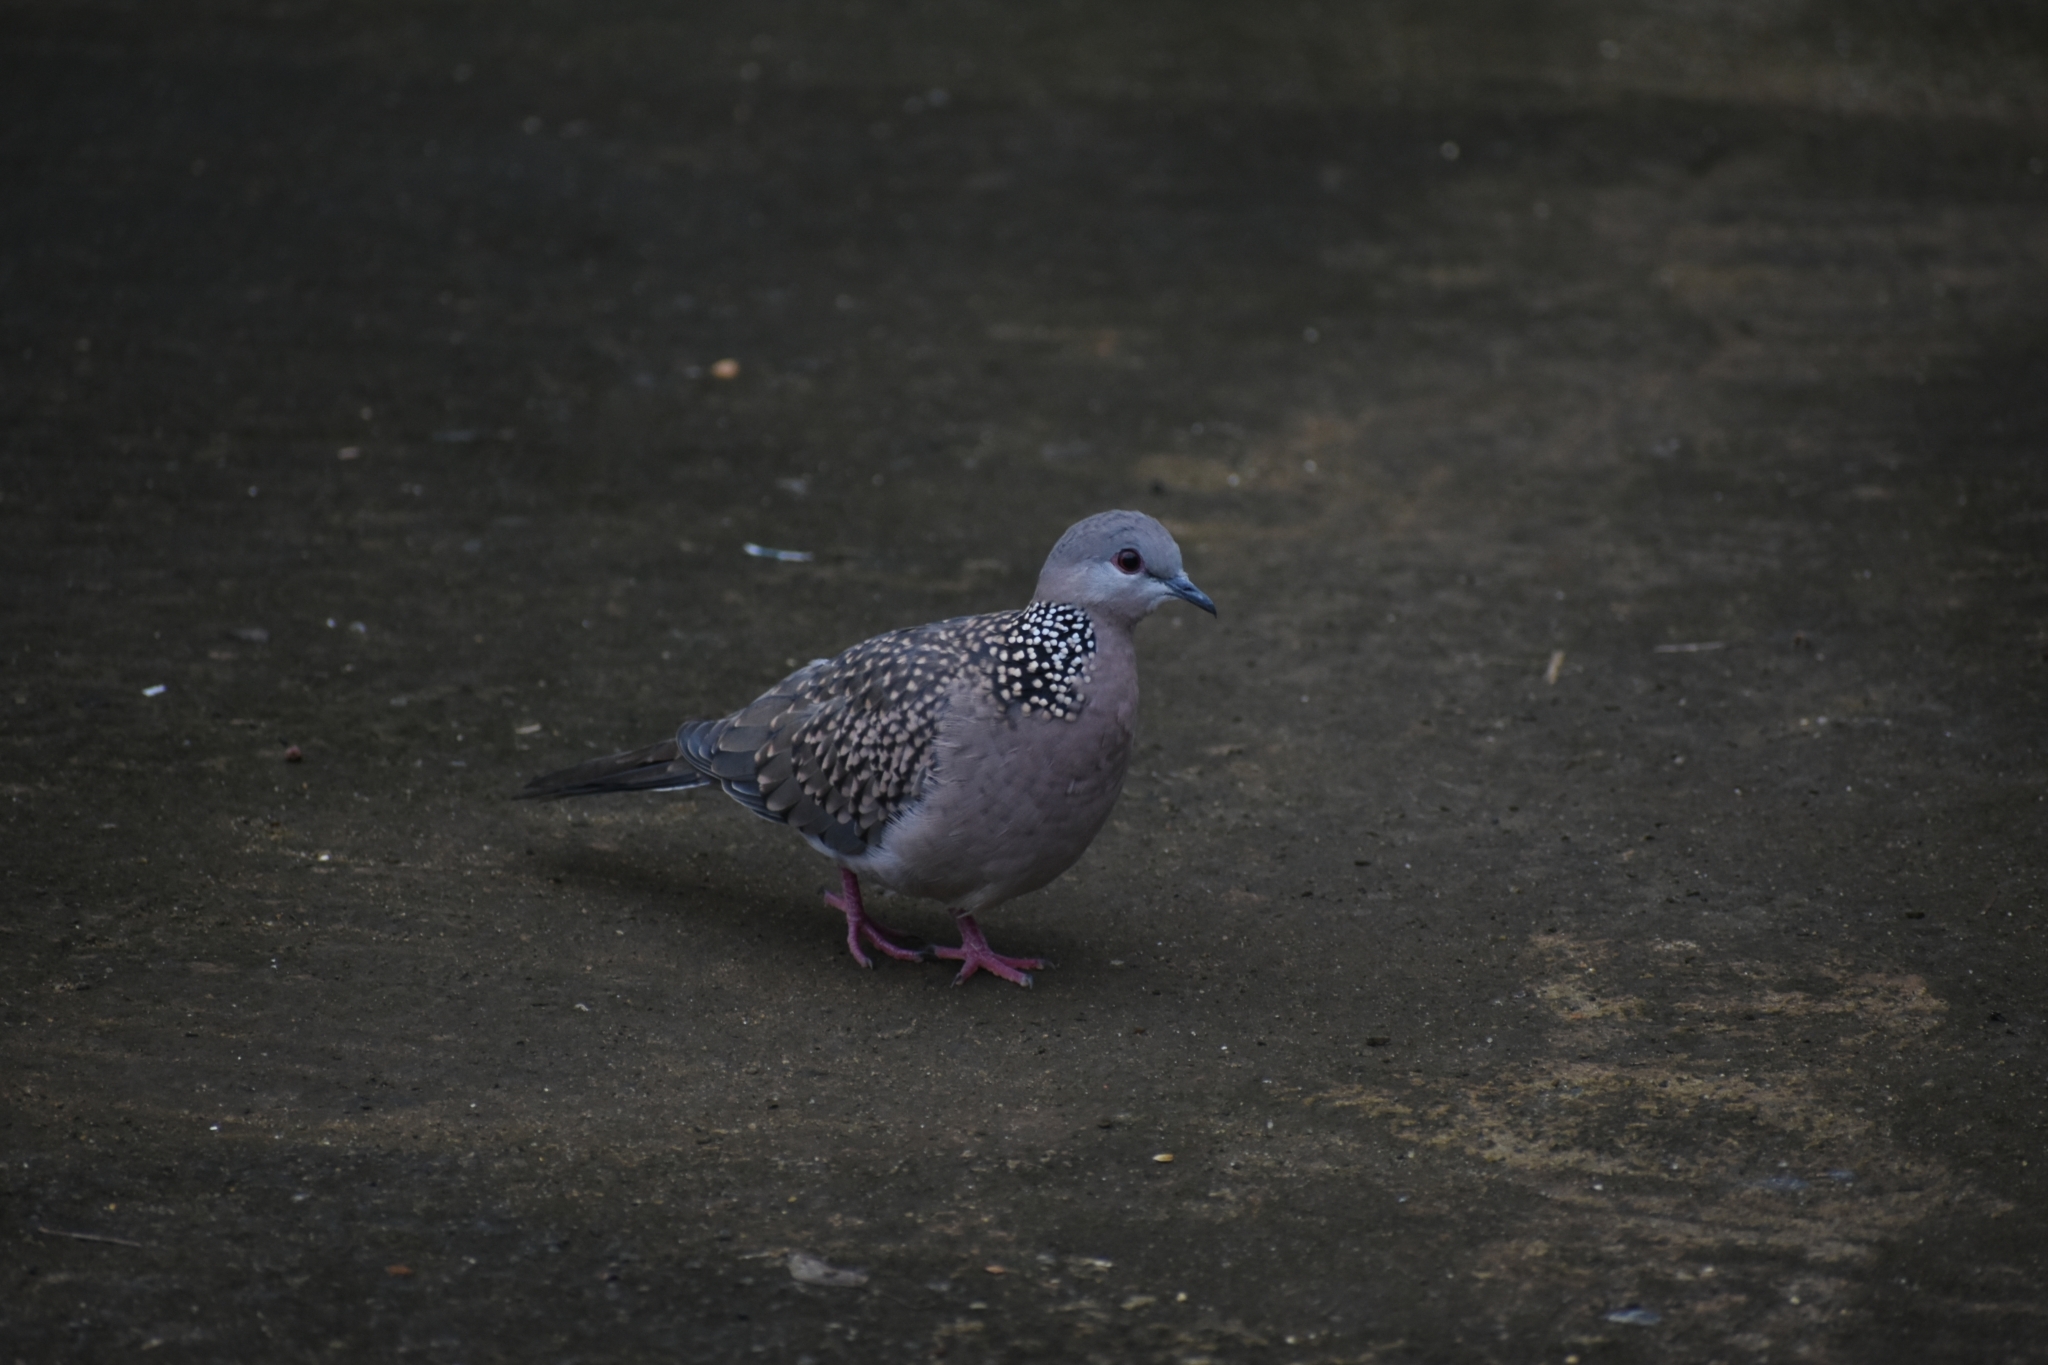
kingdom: Animalia
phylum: Chordata
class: Aves
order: Columbiformes
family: Columbidae
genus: Spilopelia
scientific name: Spilopelia chinensis
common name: Spotted dove
